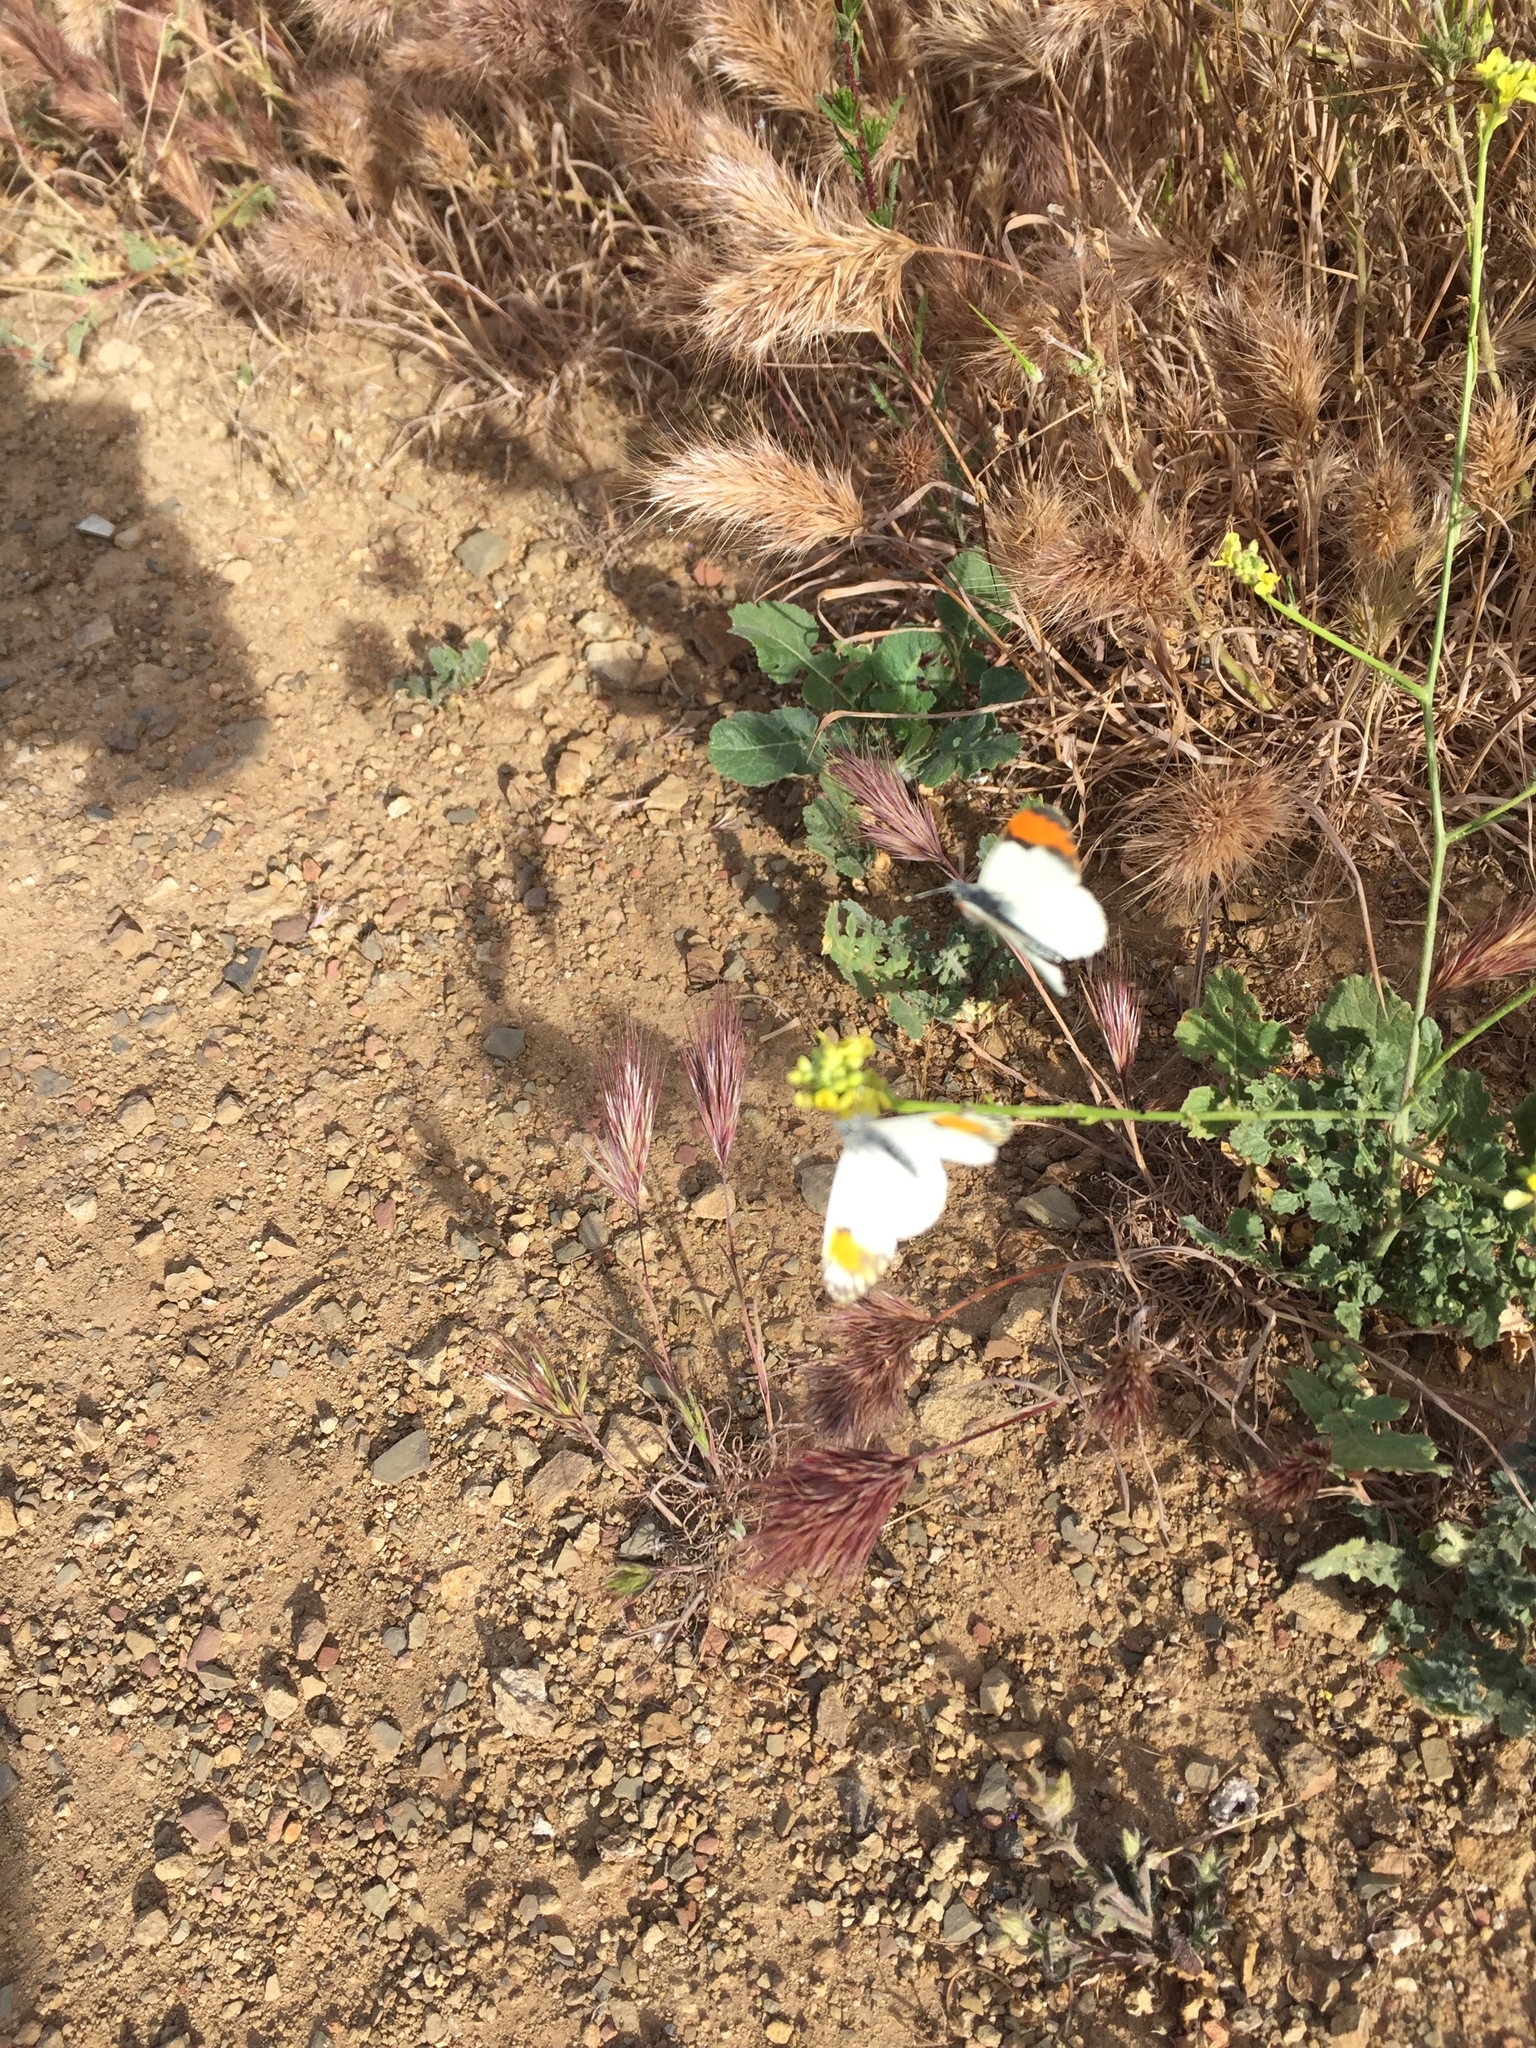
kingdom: Animalia
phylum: Arthropoda
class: Insecta
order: Lepidoptera
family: Pieridae
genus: Anthocharis
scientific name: Anthocharis sara
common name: Sara's orangetip
